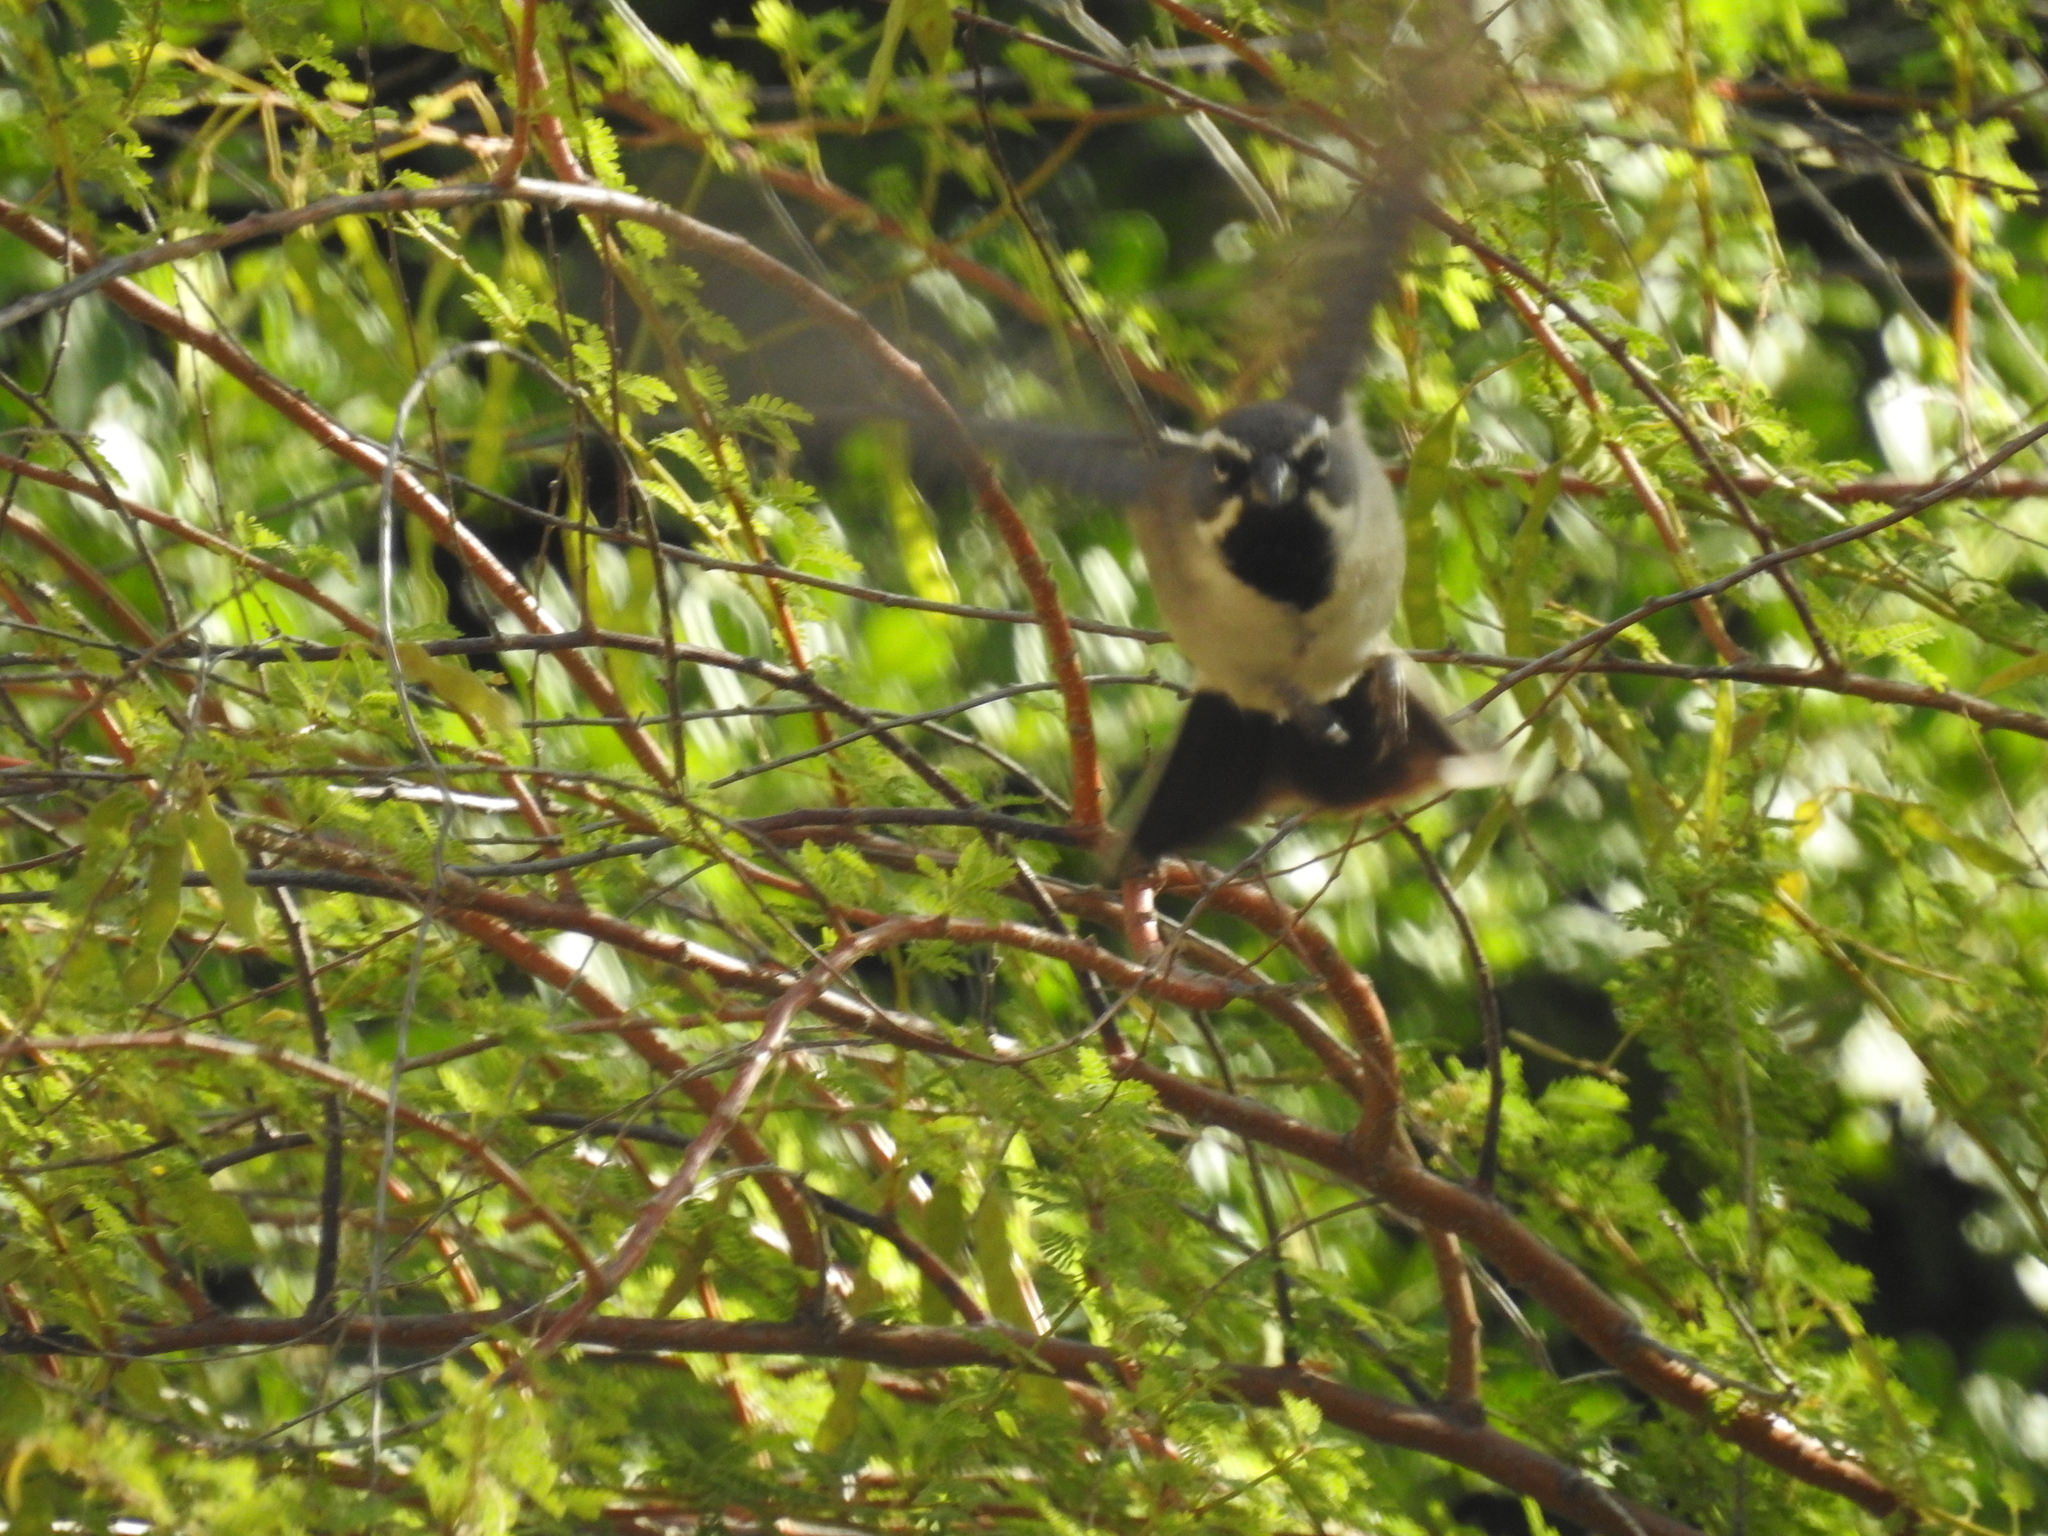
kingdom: Animalia
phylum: Chordata
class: Aves
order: Passeriformes
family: Passerellidae
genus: Amphispiza
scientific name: Amphispiza bilineata
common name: Black-throated sparrow
